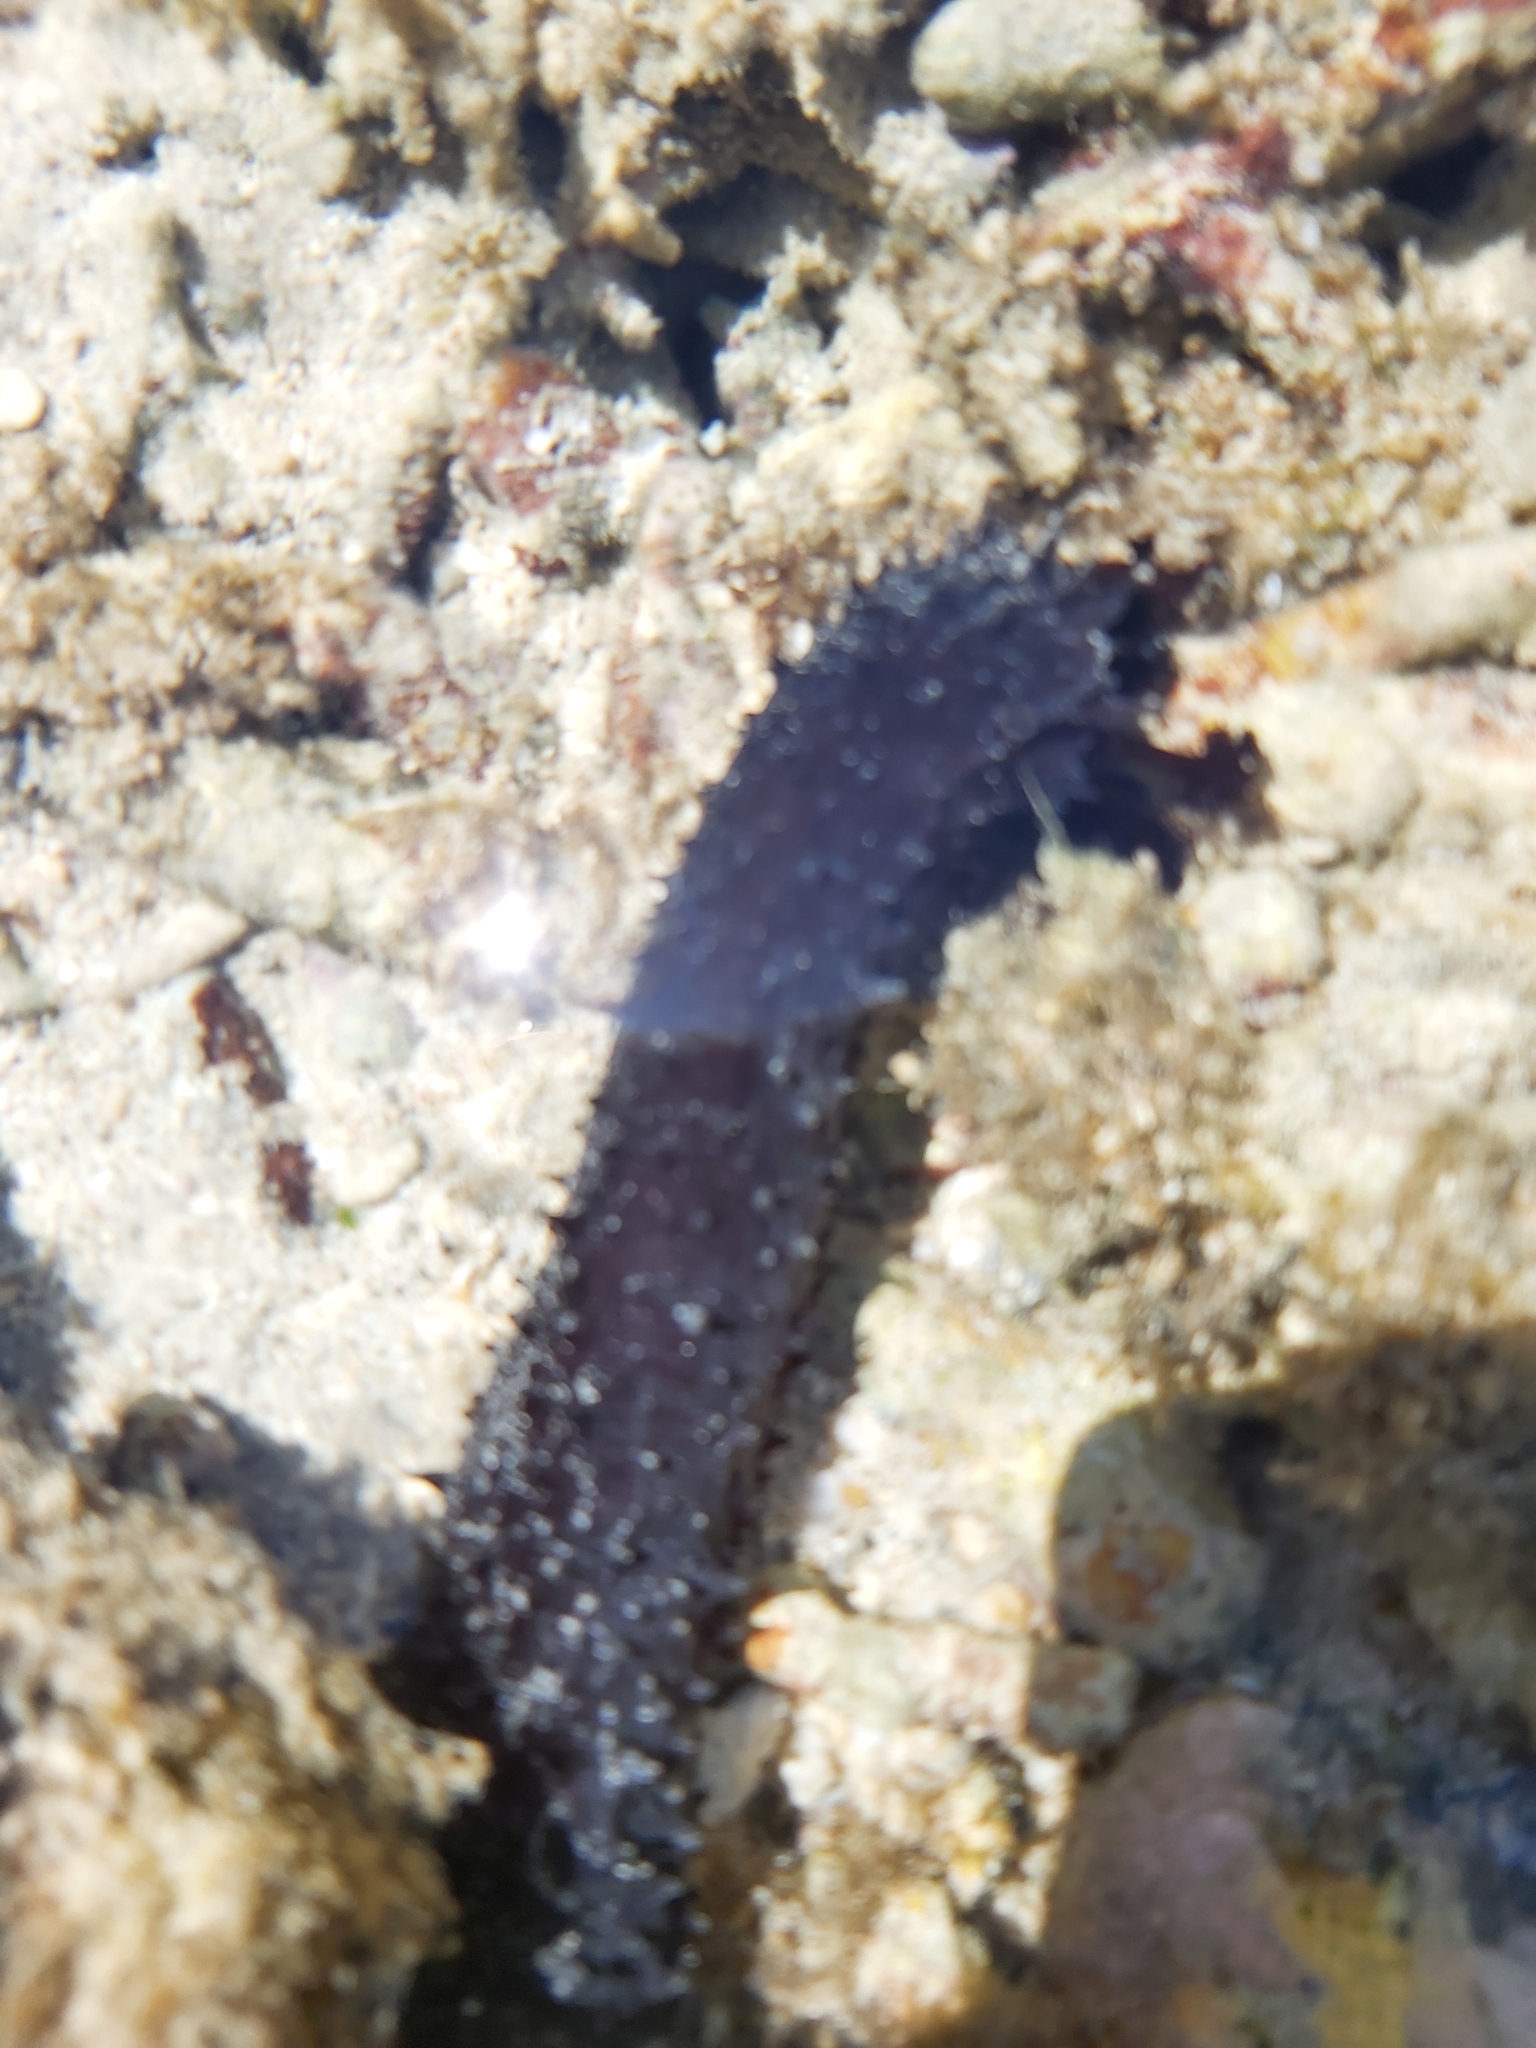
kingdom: Animalia
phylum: Echinodermata
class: Holothuroidea
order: Holothuriida
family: Holothuriidae
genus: Holothuria
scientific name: Holothuria leucospilota
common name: White thread fish
